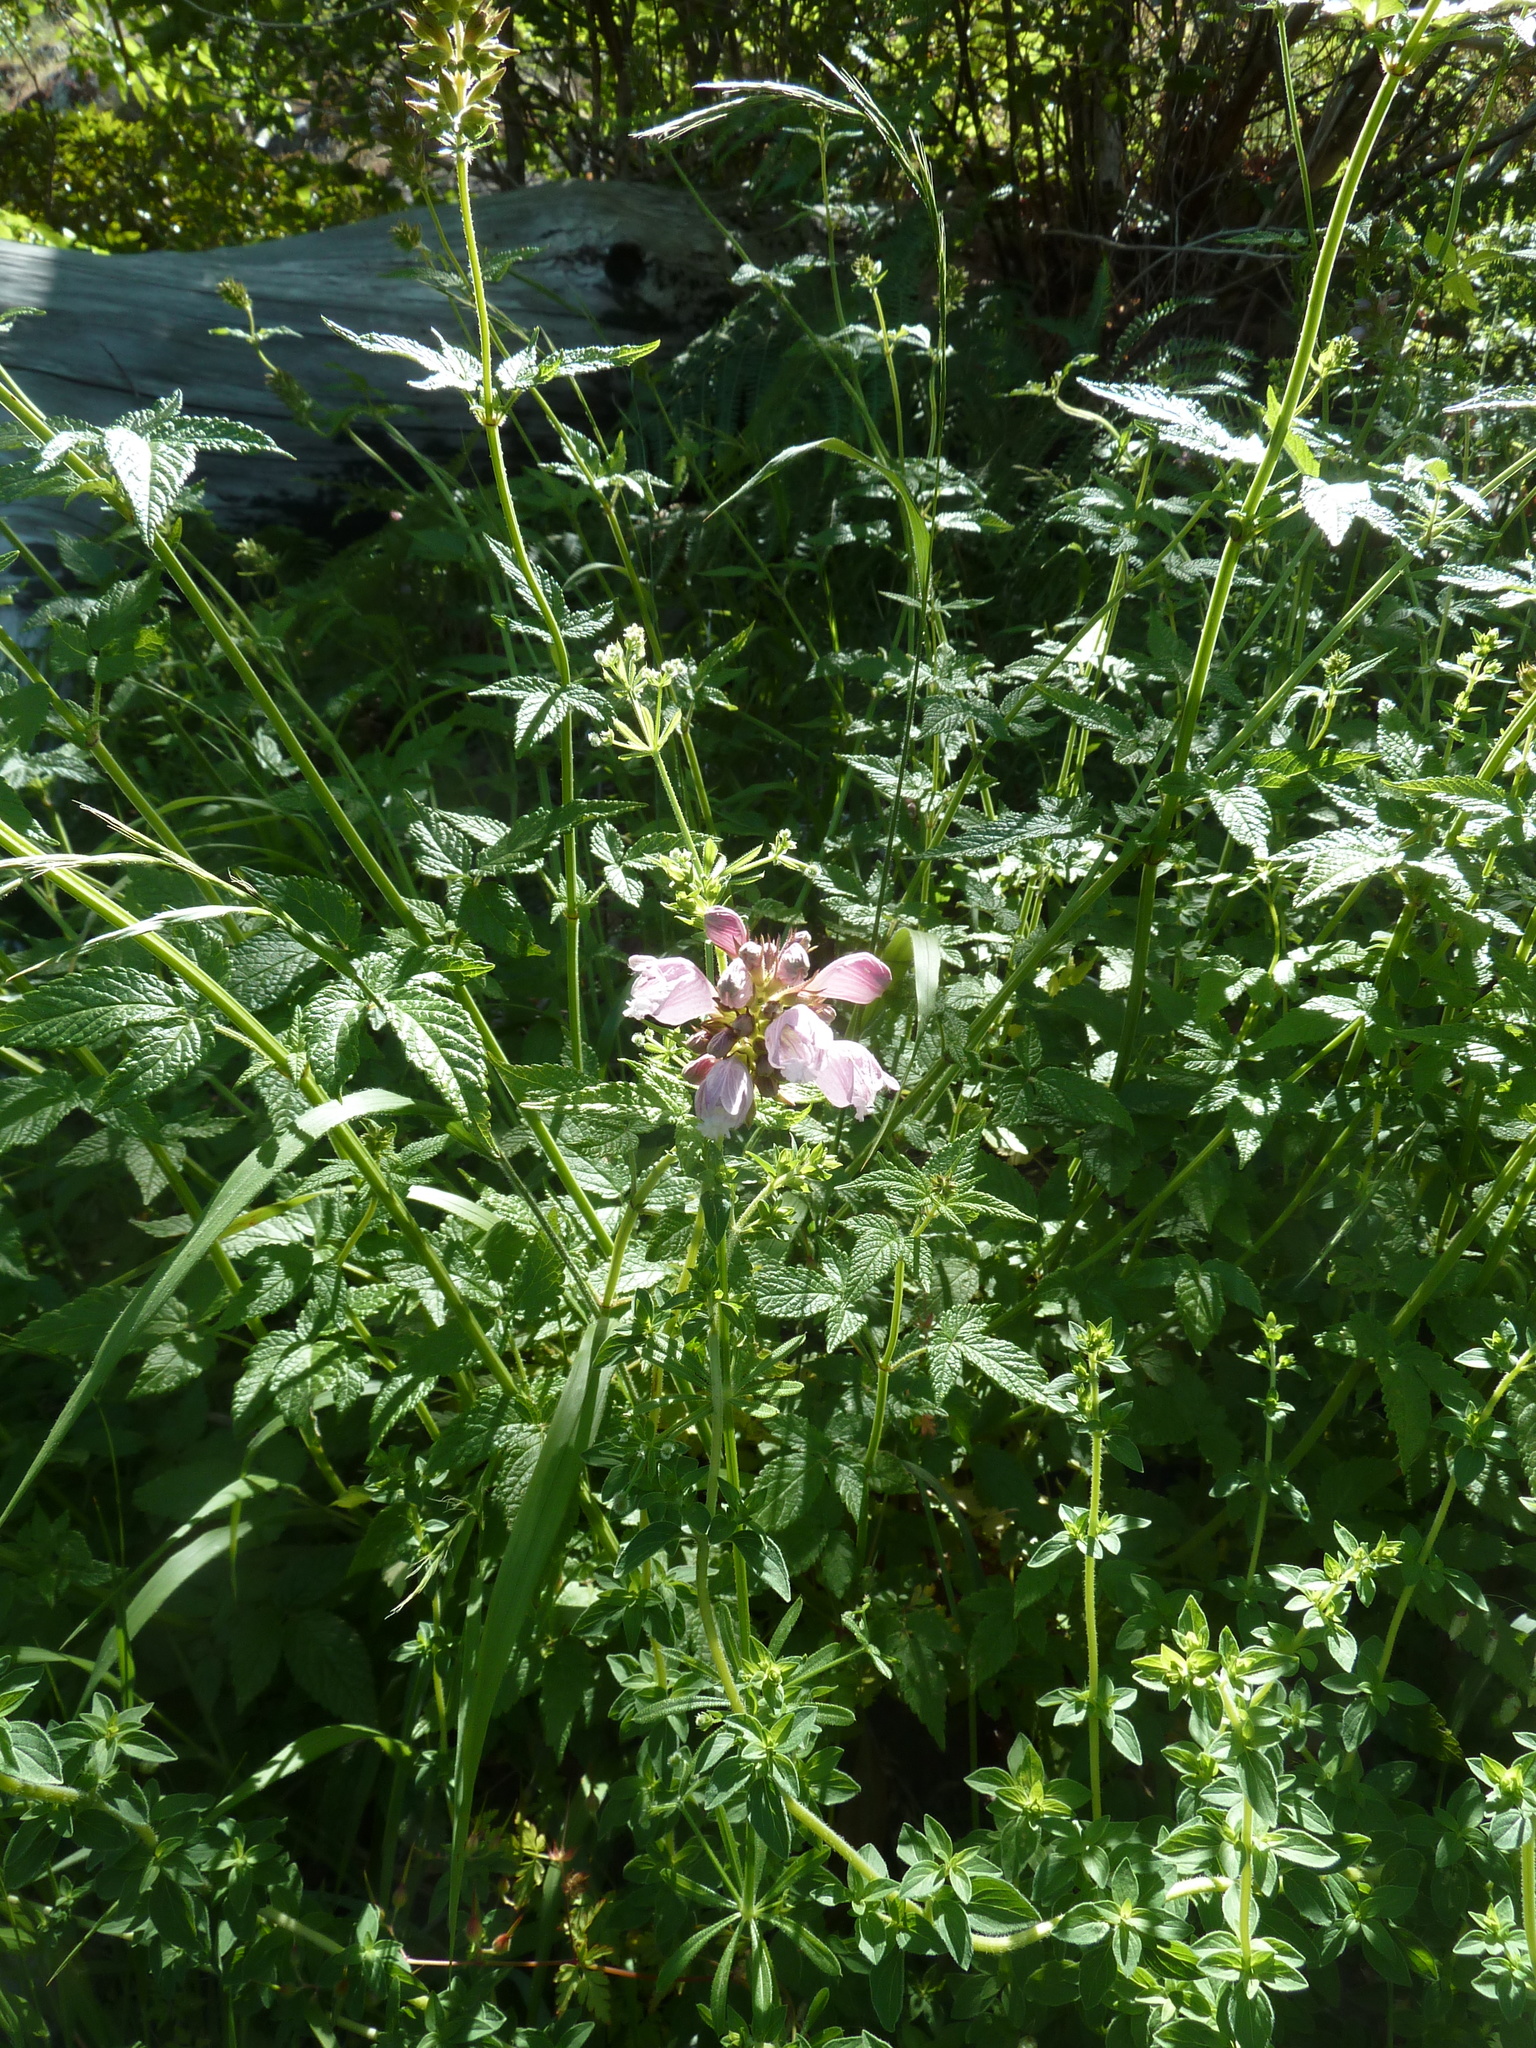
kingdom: Plantae
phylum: Tracheophyta
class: Magnoliopsida
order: Lamiales
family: Lamiaceae
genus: Cedronella
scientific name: Cedronella canariensis
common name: Canary islands balm
